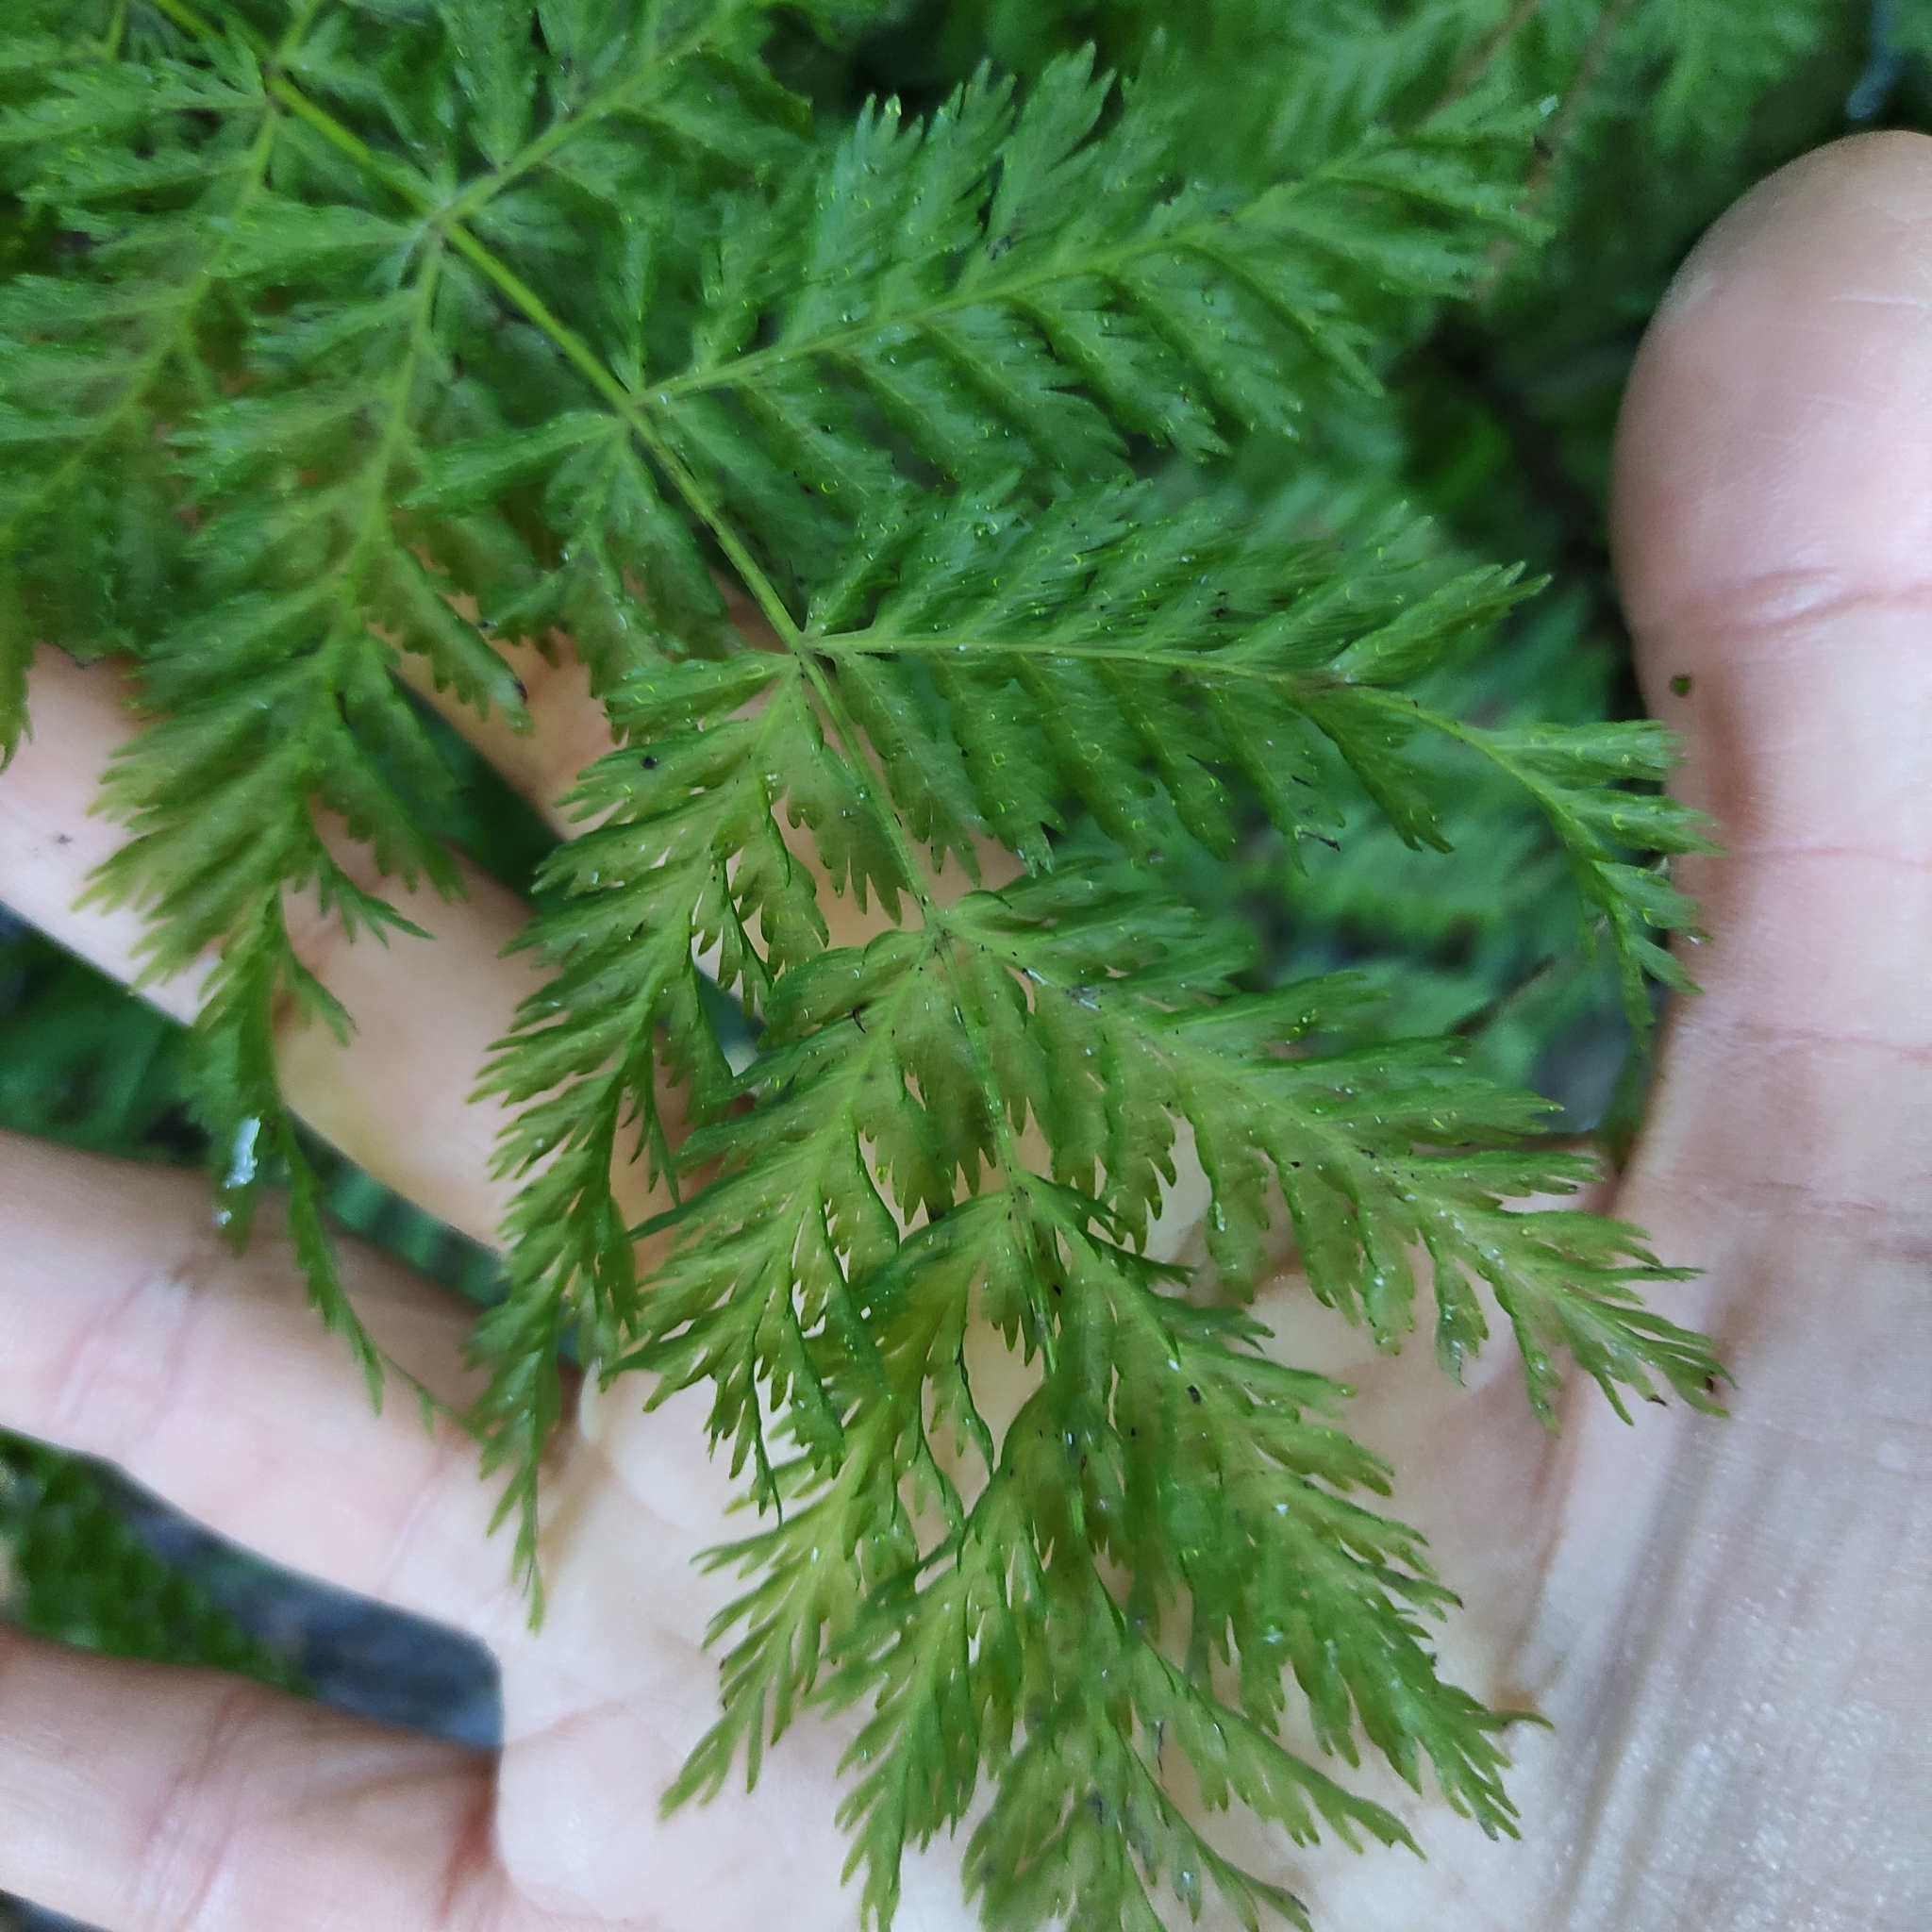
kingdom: Plantae
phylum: Tracheophyta
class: Polypodiopsida
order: Osmundales
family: Osmundaceae
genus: Leptopteris
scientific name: Leptopteris hymenophylloides
